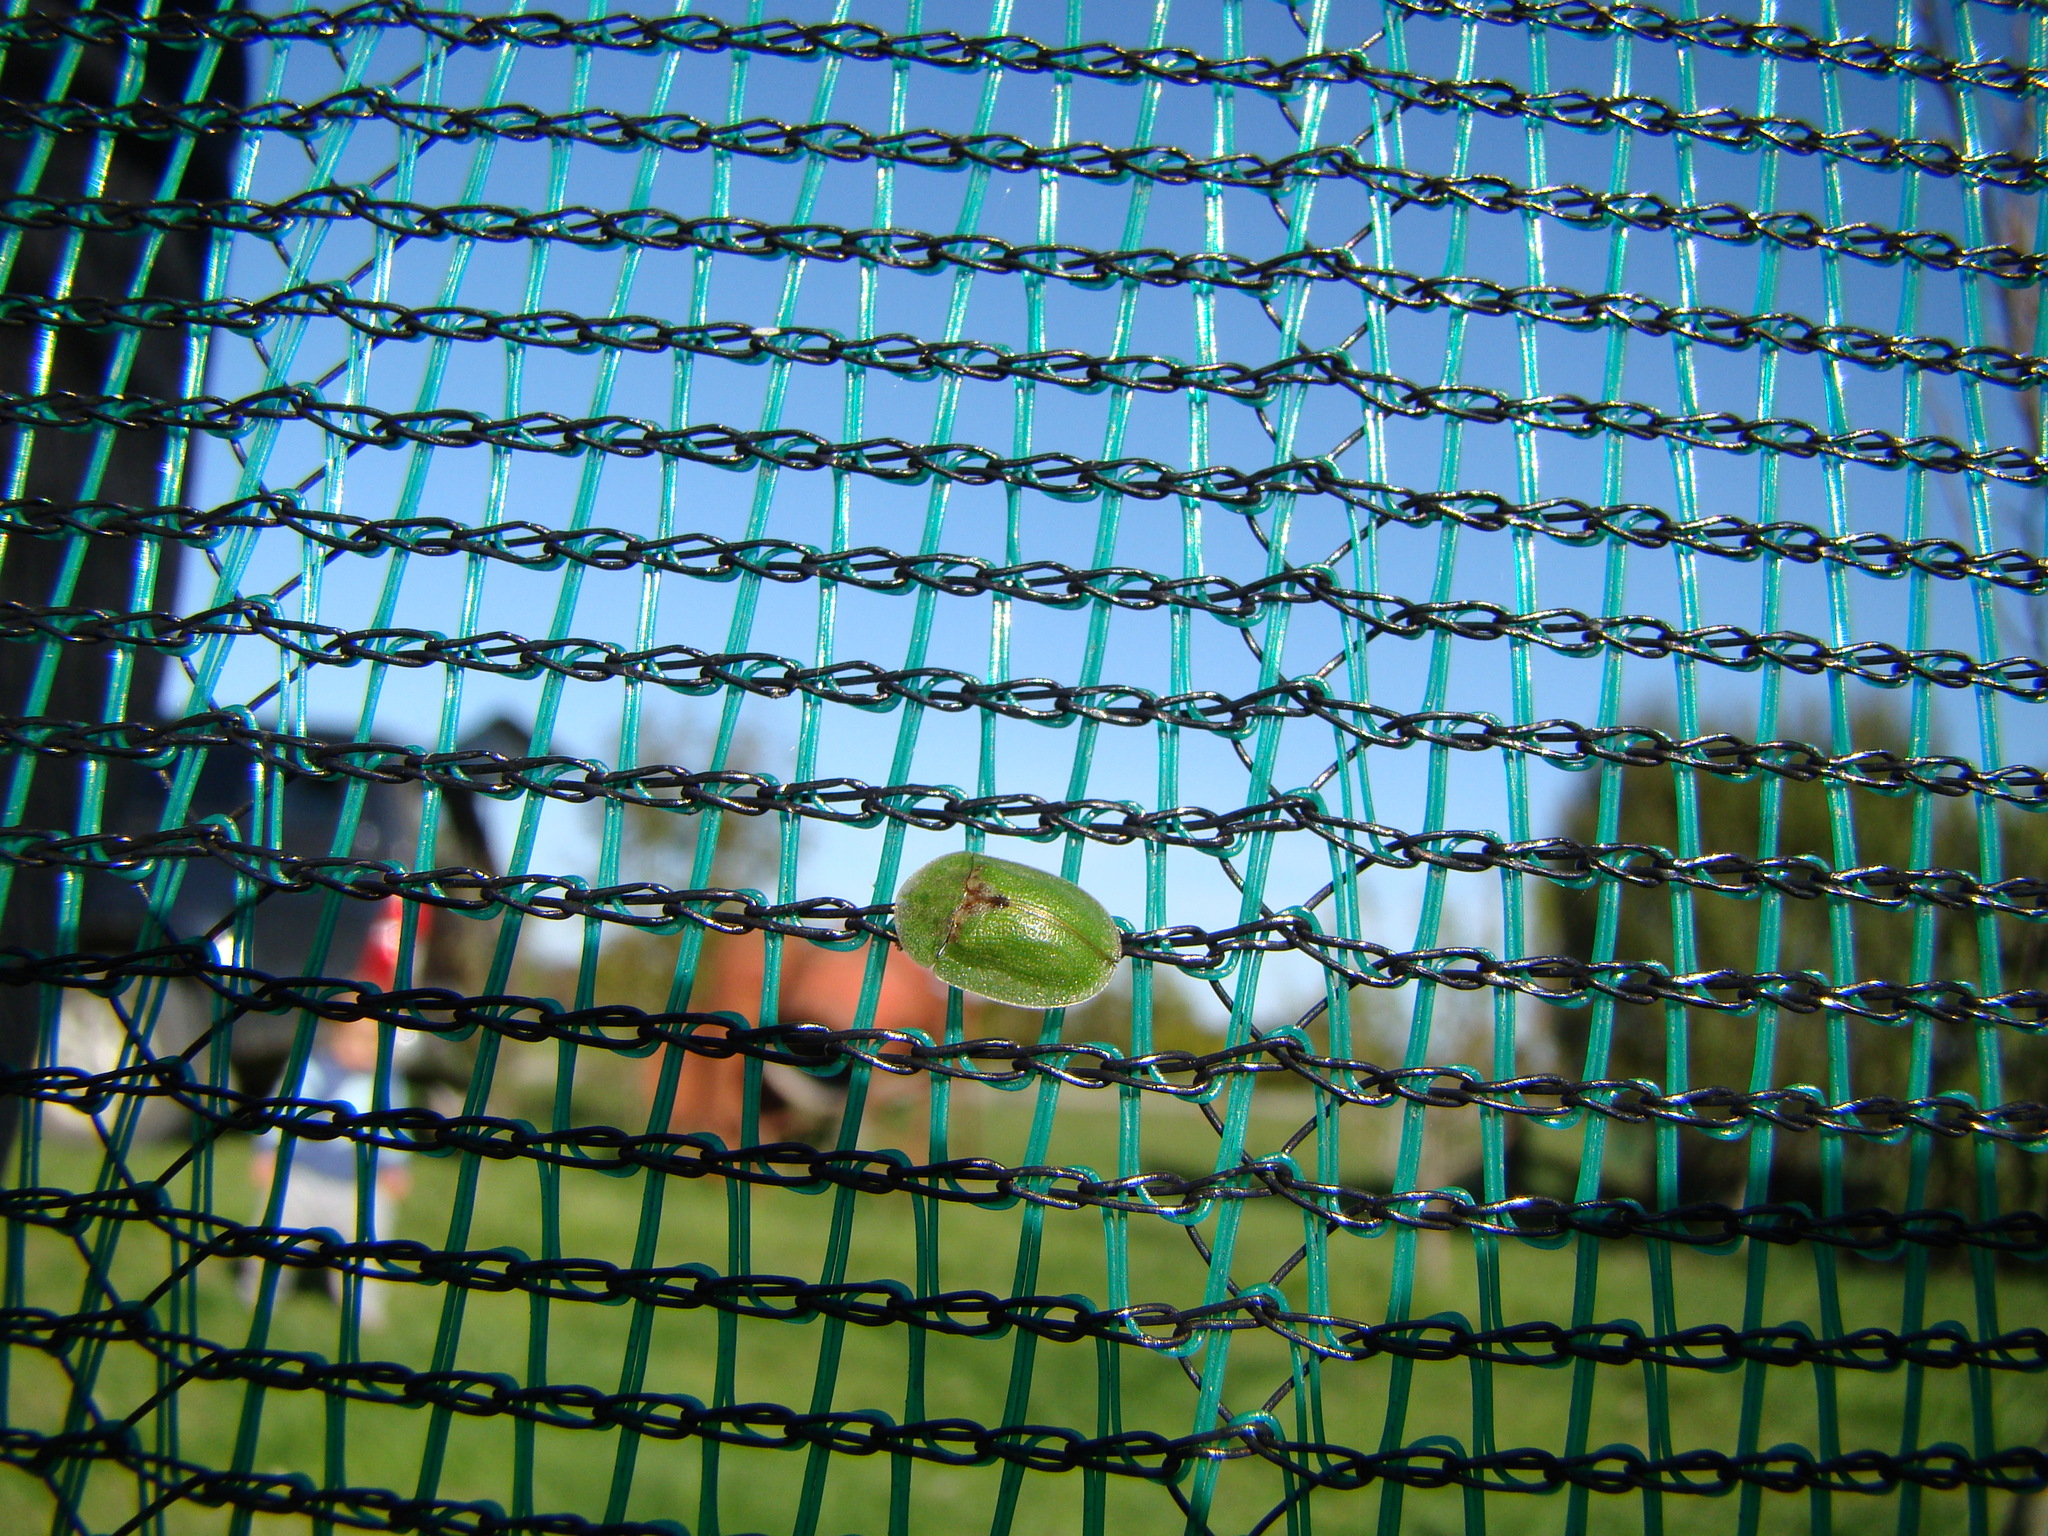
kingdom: Animalia
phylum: Arthropoda
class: Insecta
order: Coleoptera
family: Chrysomelidae
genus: Cassida
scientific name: Cassida rubiginosa
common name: Thistle tortoise beetle
